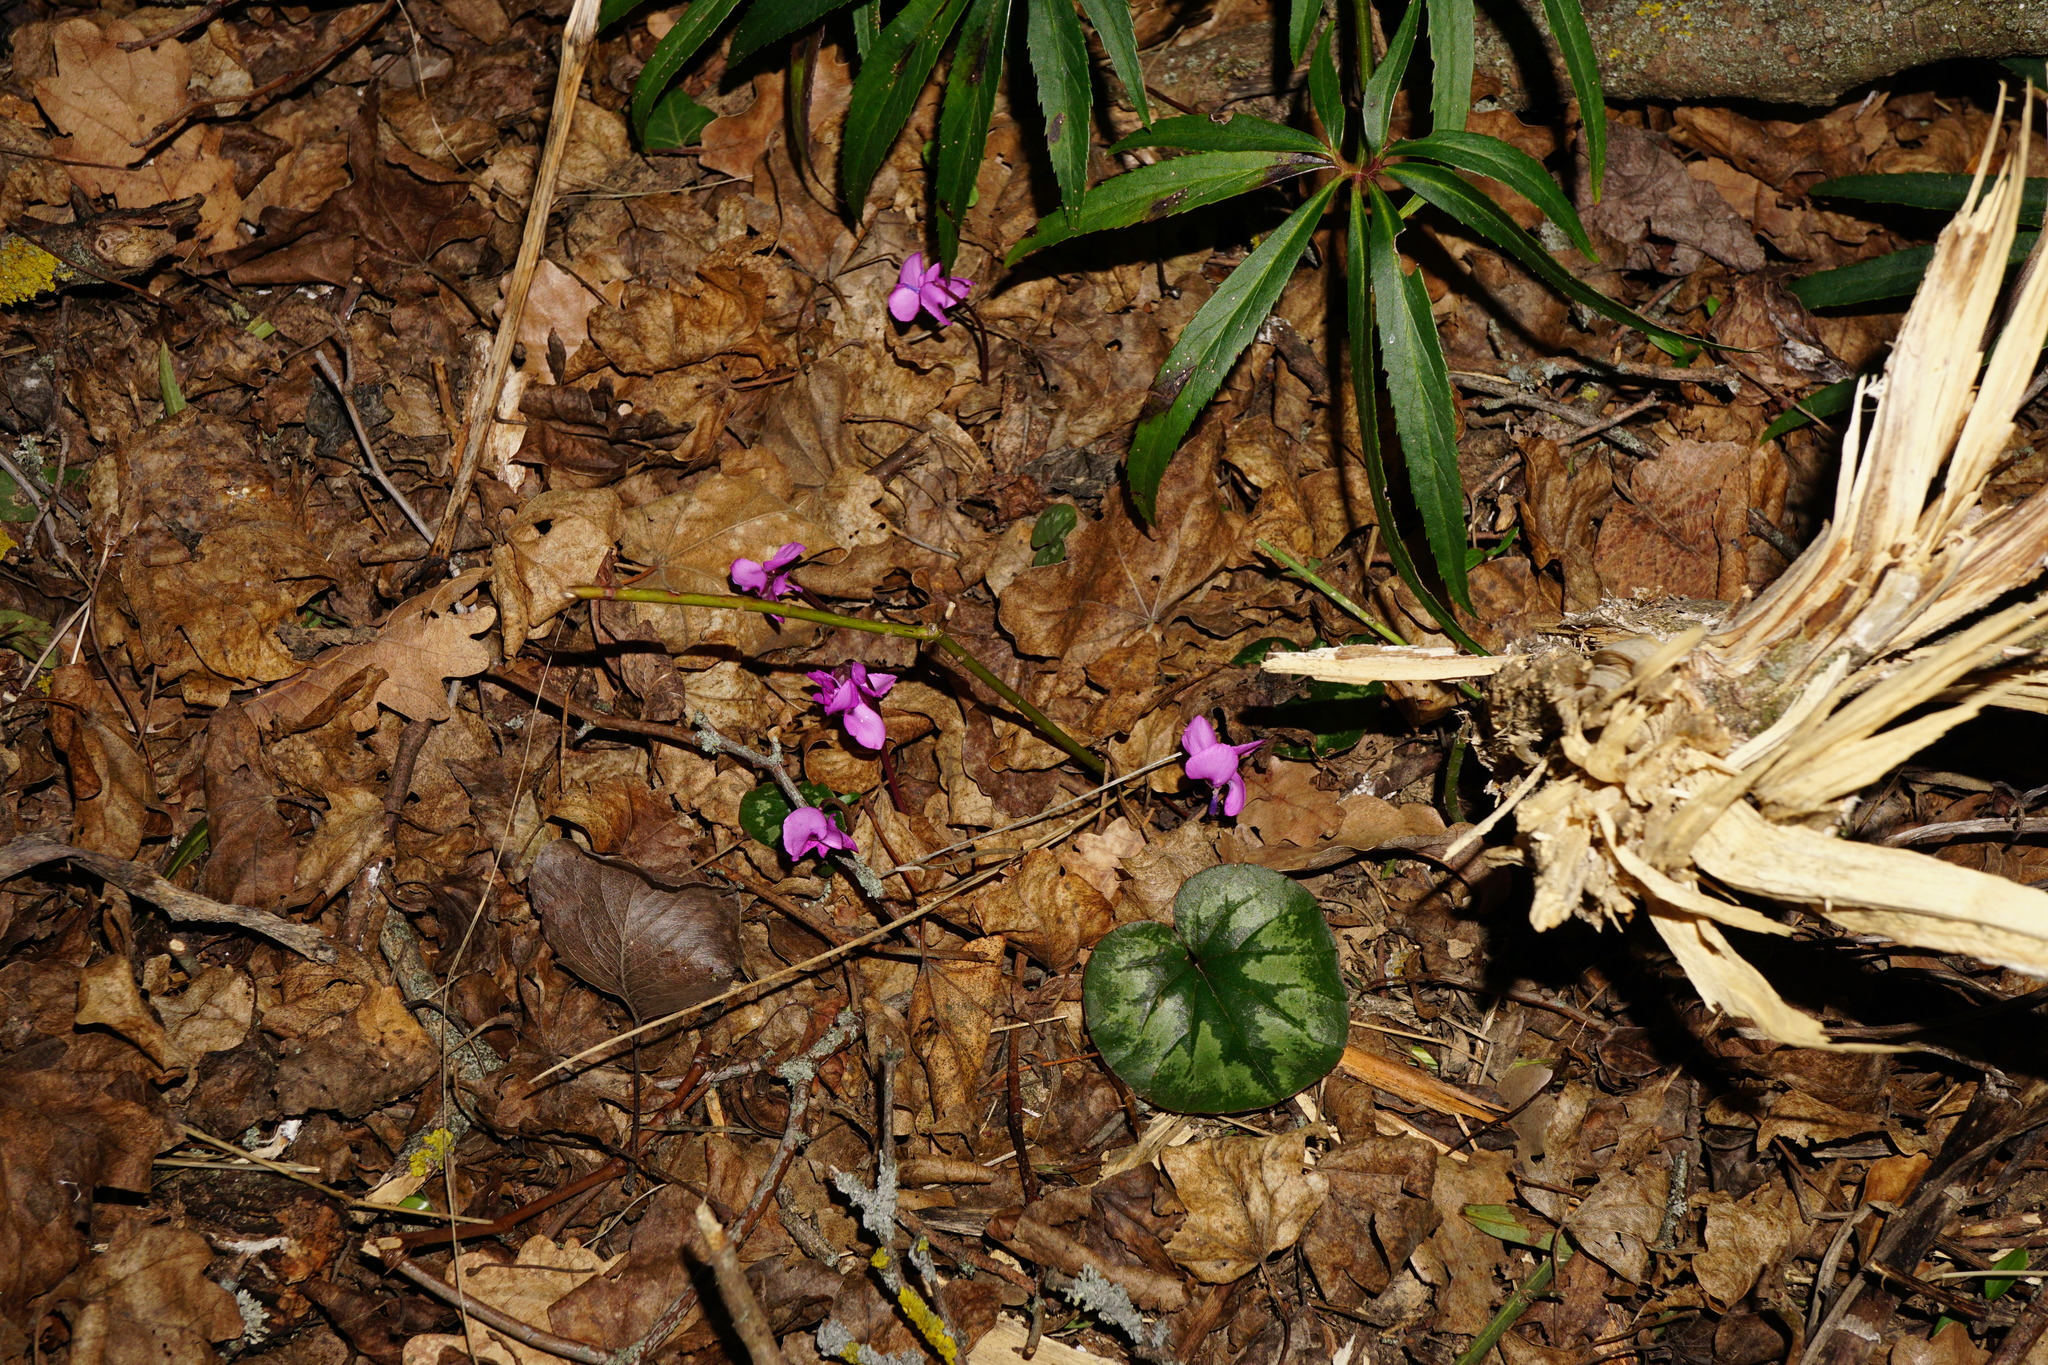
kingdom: Plantae
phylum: Tracheophyta
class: Magnoliopsida
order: Ericales
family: Primulaceae
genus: Cyclamen
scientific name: Cyclamen coum
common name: Eastern sowbread
